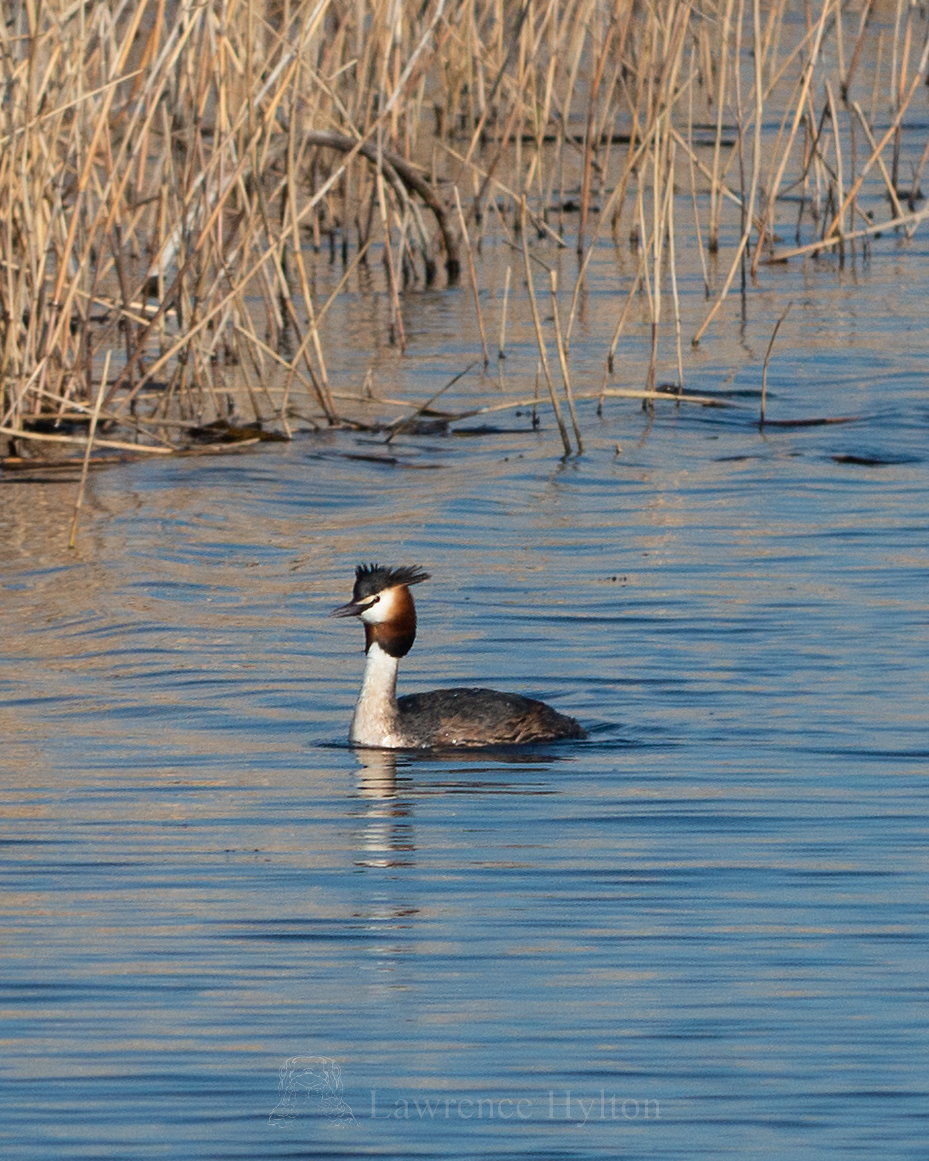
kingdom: Animalia
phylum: Chordata
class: Aves
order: Podicipediformes
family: Podicipedidae
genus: Podiceps
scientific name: Podiceps cristatus
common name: Great crested grebe
